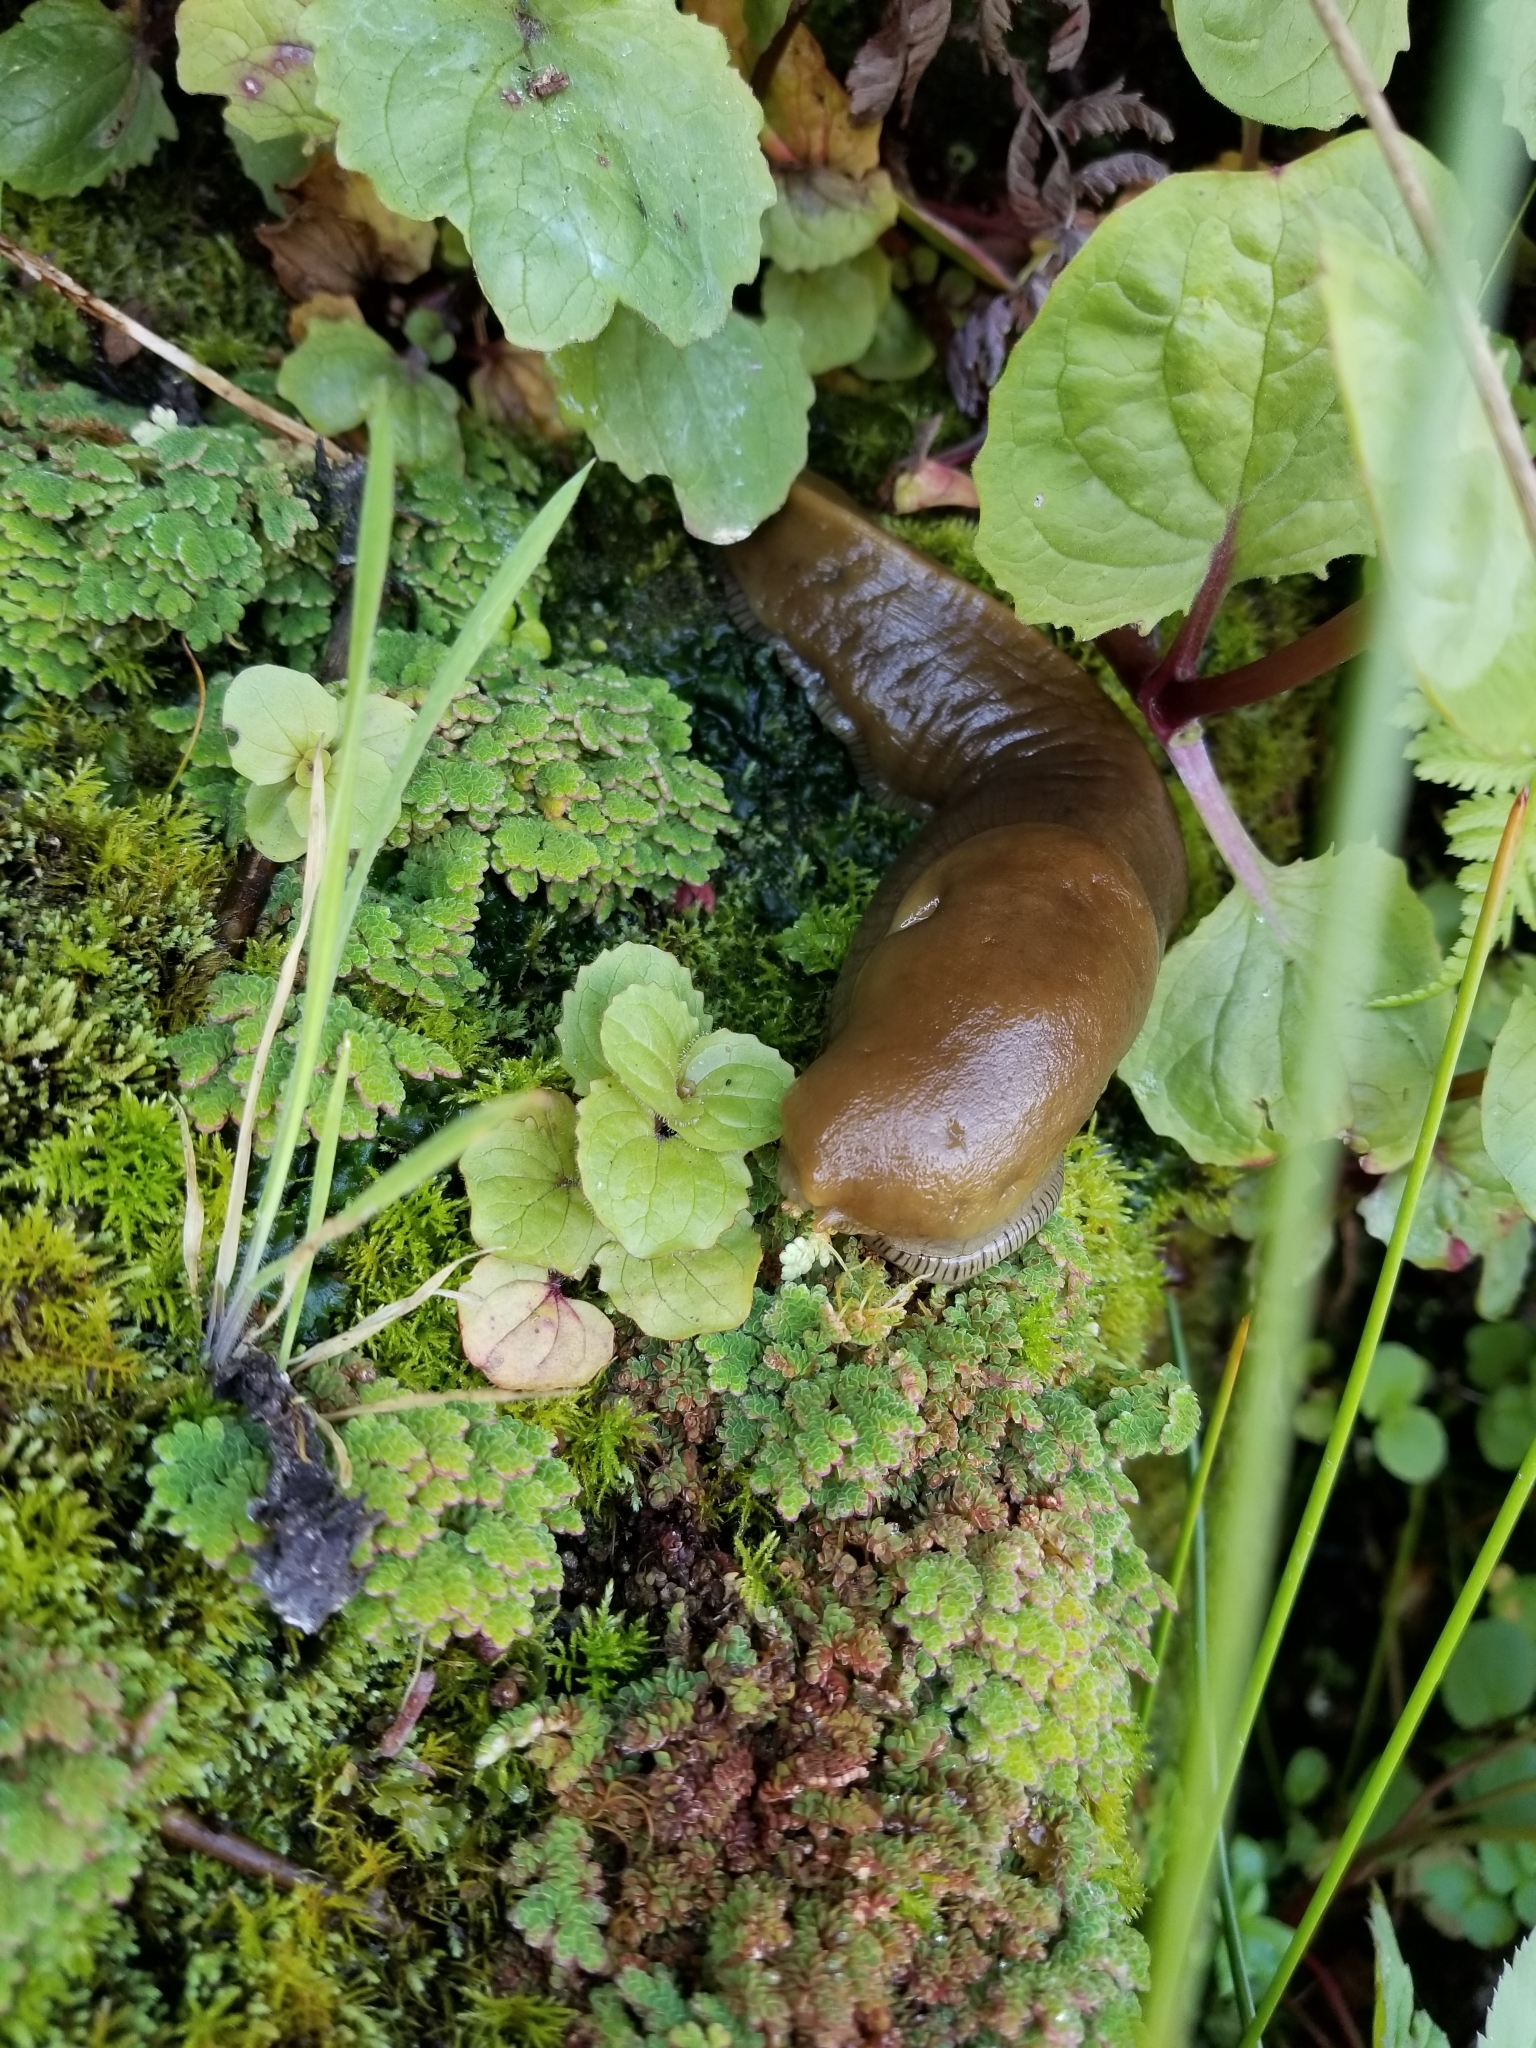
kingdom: Animalia
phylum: Mollusca
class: Gastropoda
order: Stylommatophora
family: Ariolimacidae
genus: Ariolimax
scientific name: Ariolimax buttoni
